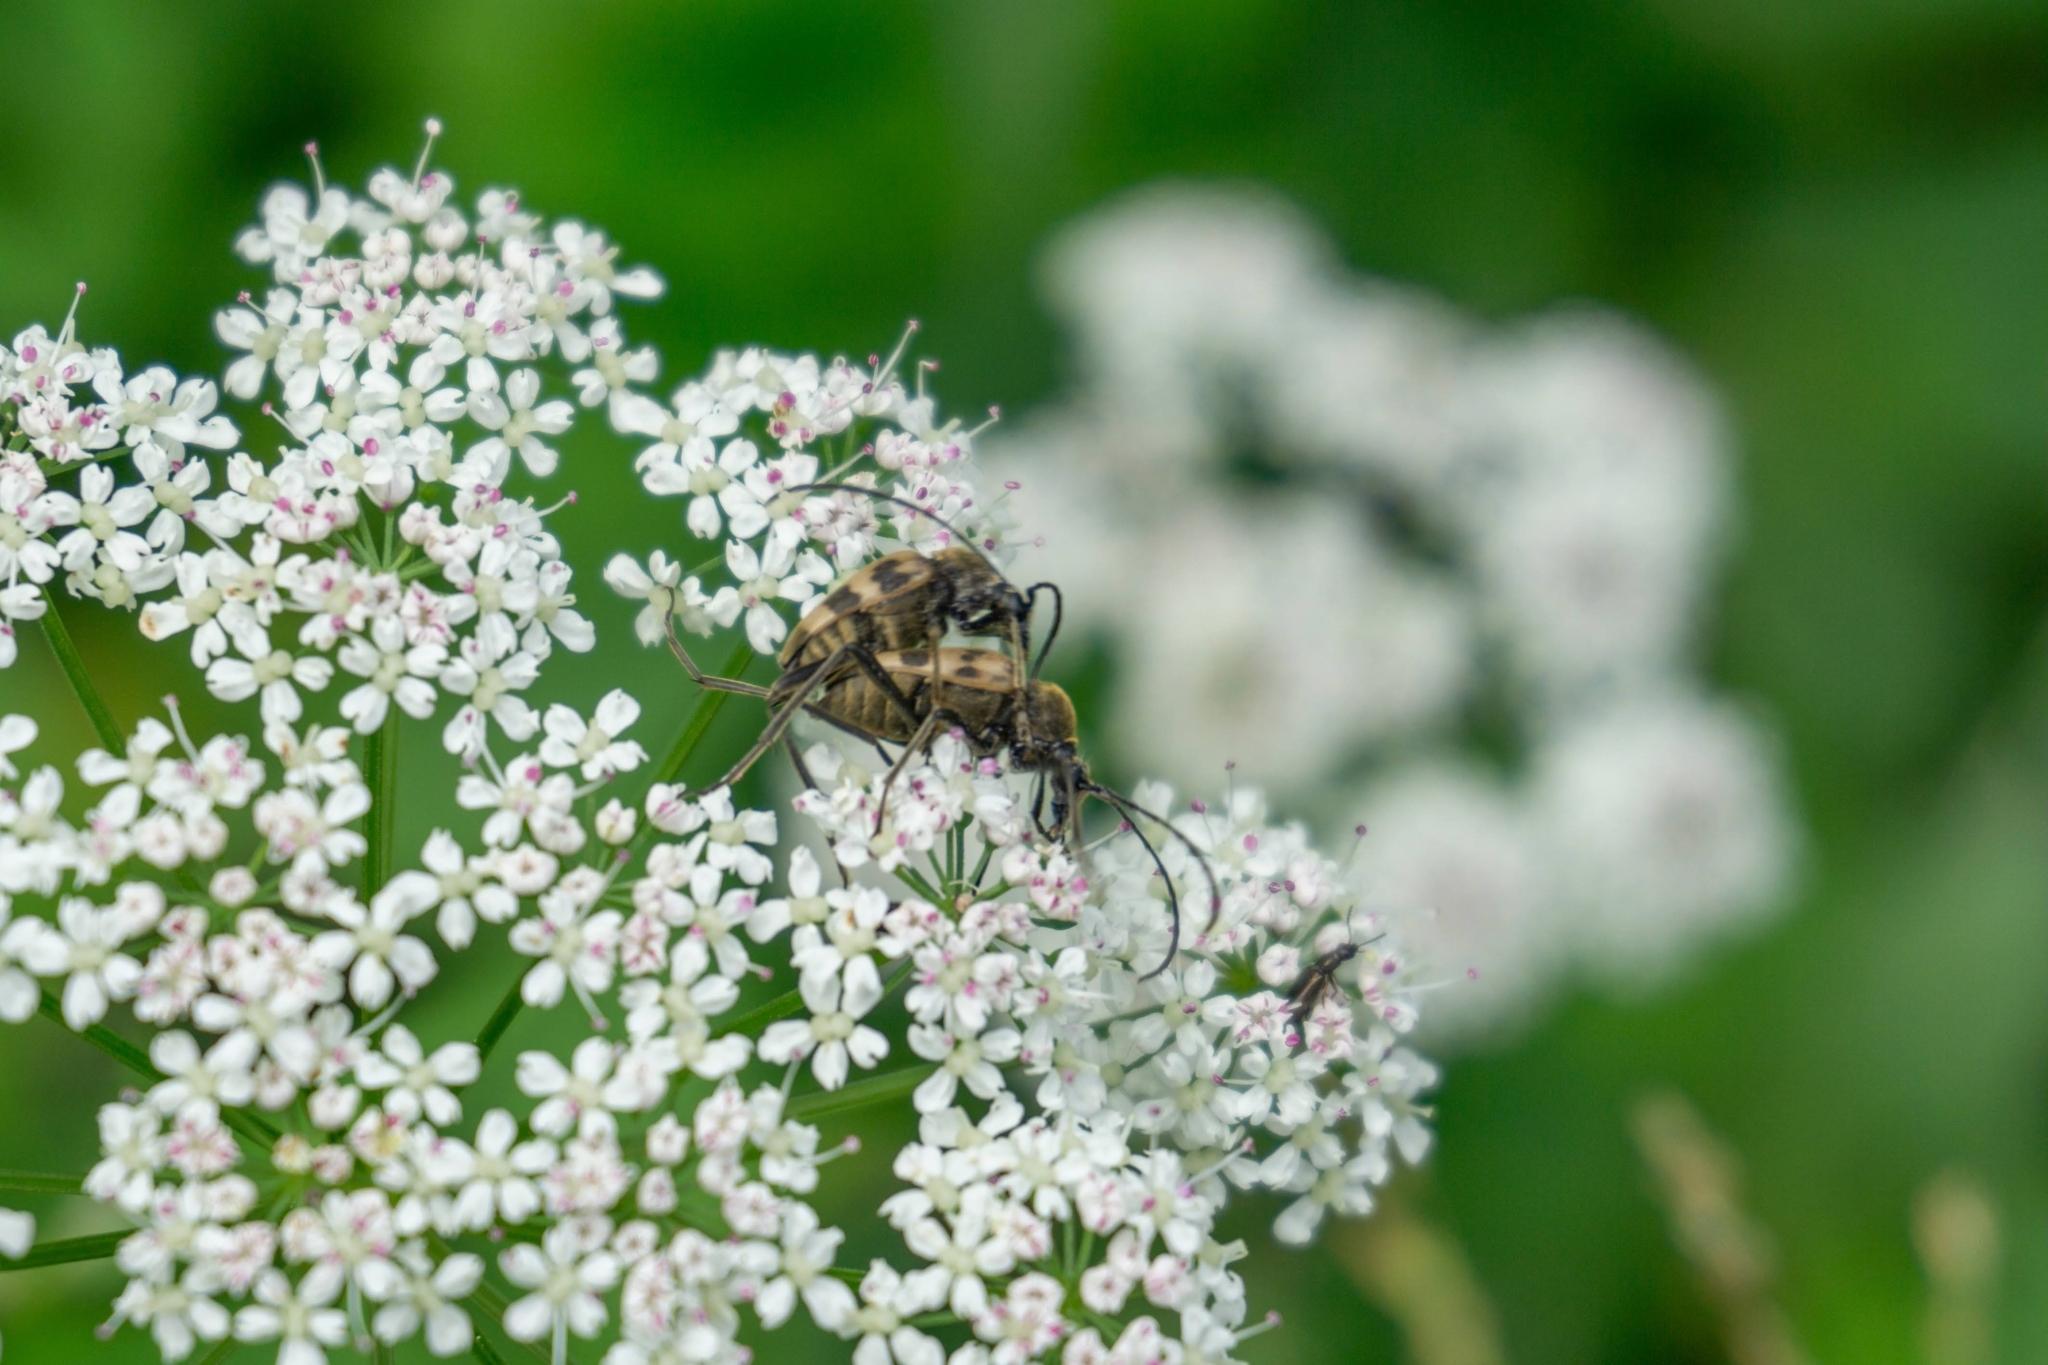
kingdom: Animalia
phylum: Arthropoda
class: Insecta
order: Coleoptera
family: Cerambycidae
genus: Pachytodes
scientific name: Pachytodes cerambyciformis
